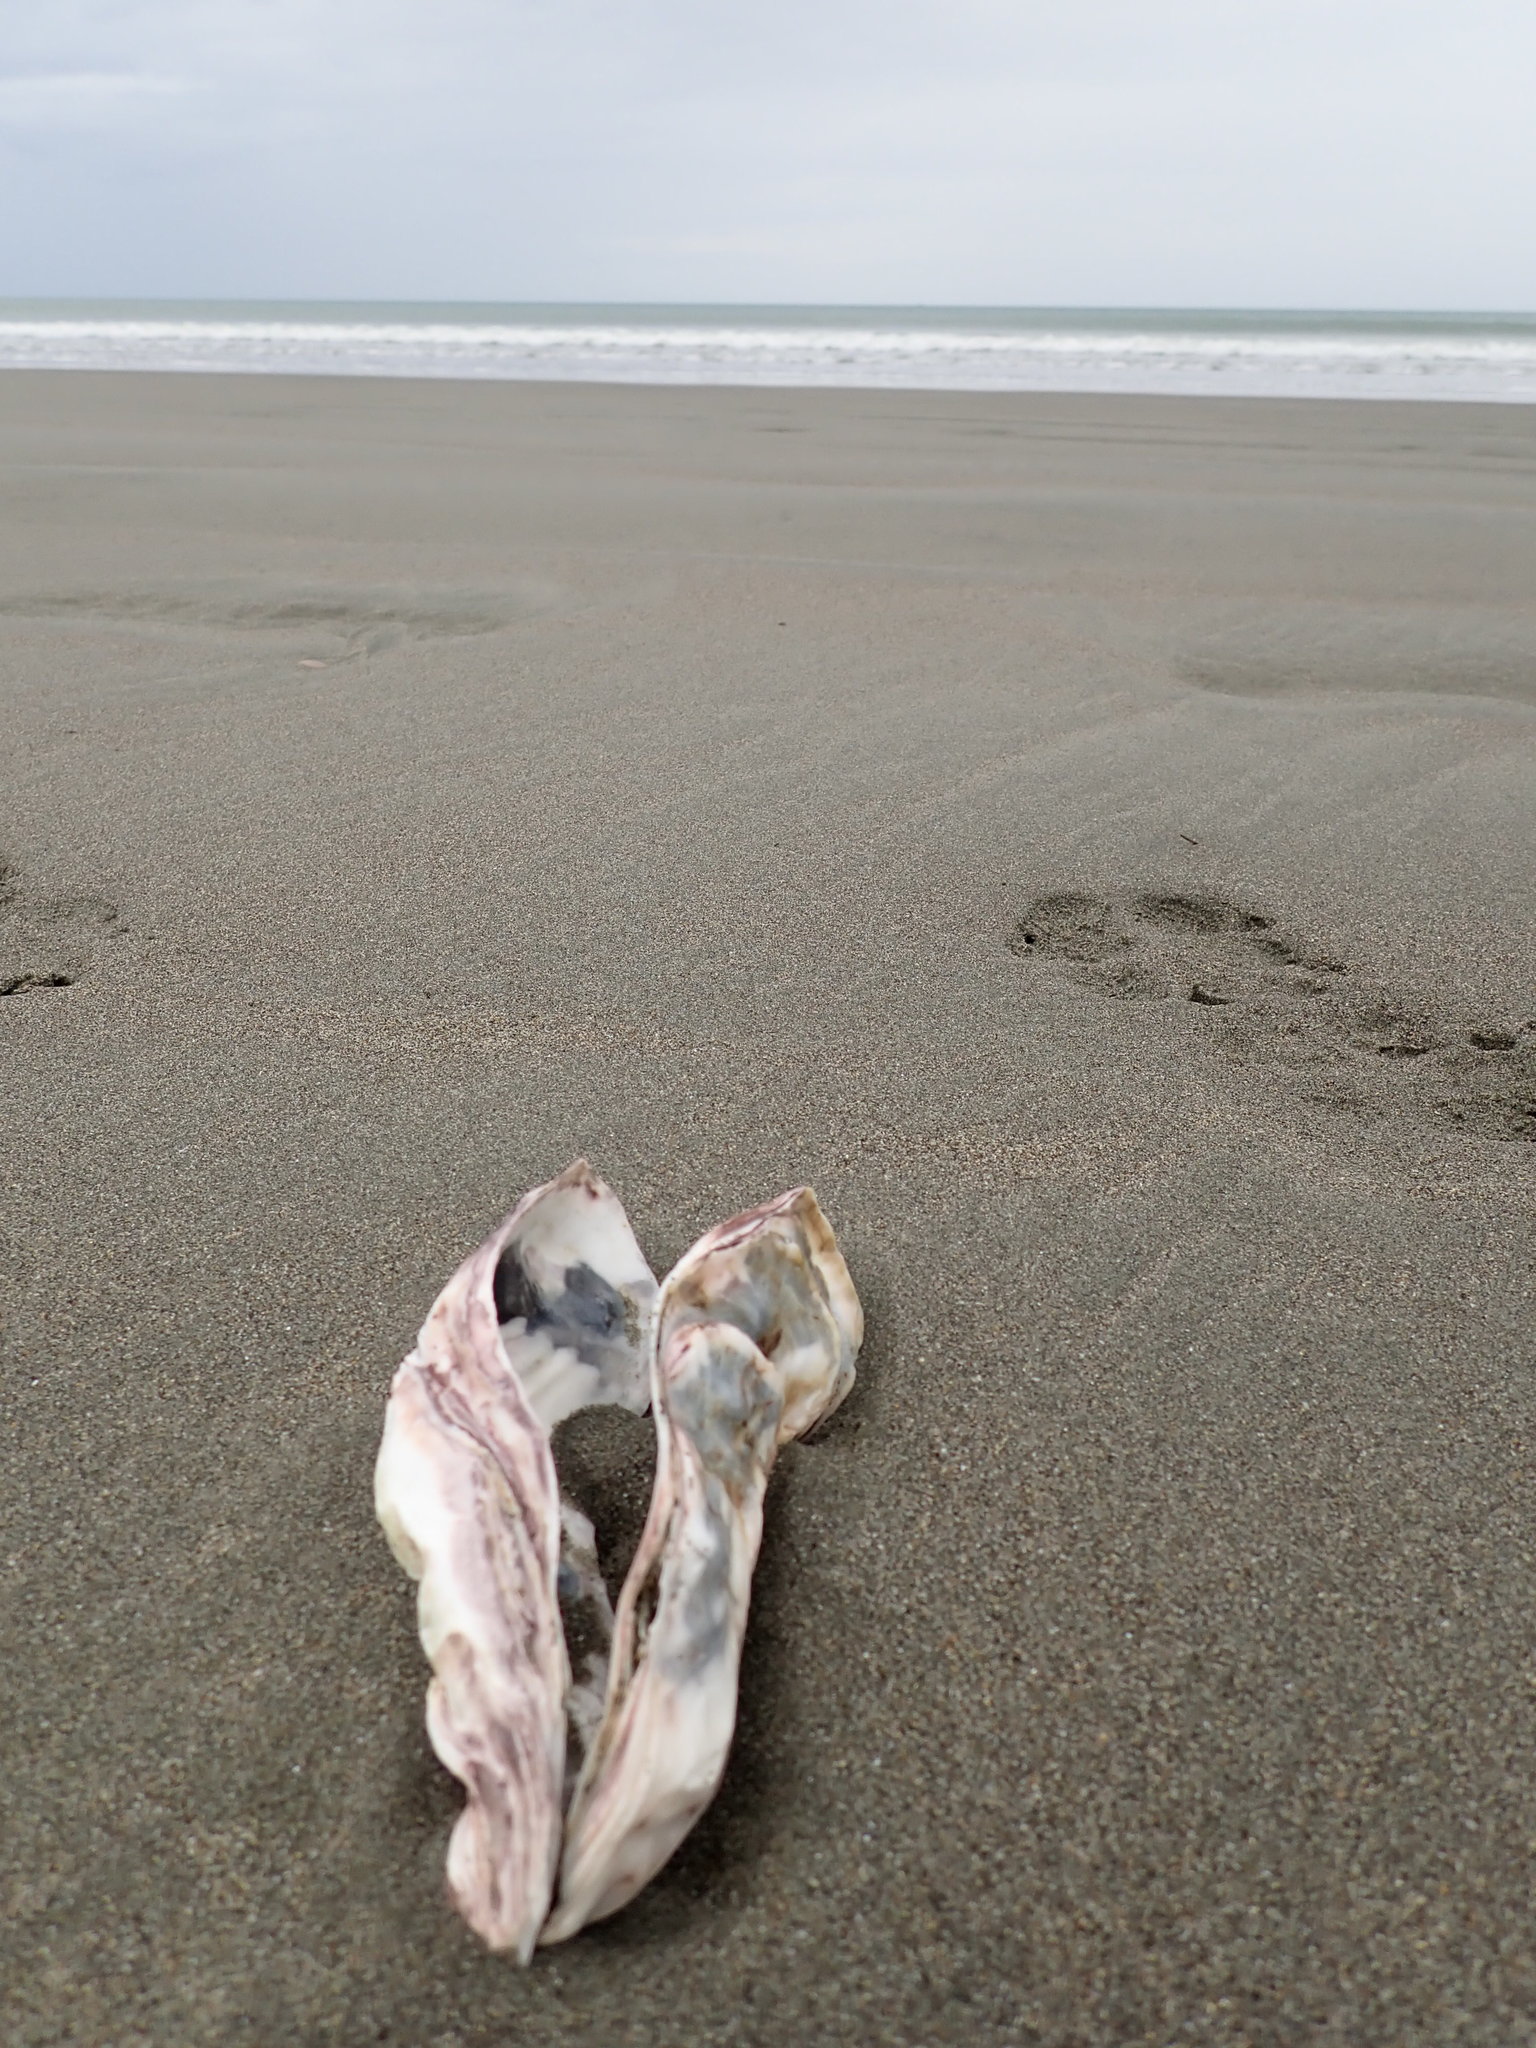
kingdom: Animalia
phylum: Mollusca
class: Bivalvia
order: Ostreida
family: Ostreidae
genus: Magallana
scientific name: Magallana gigas
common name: Pacific oyster
